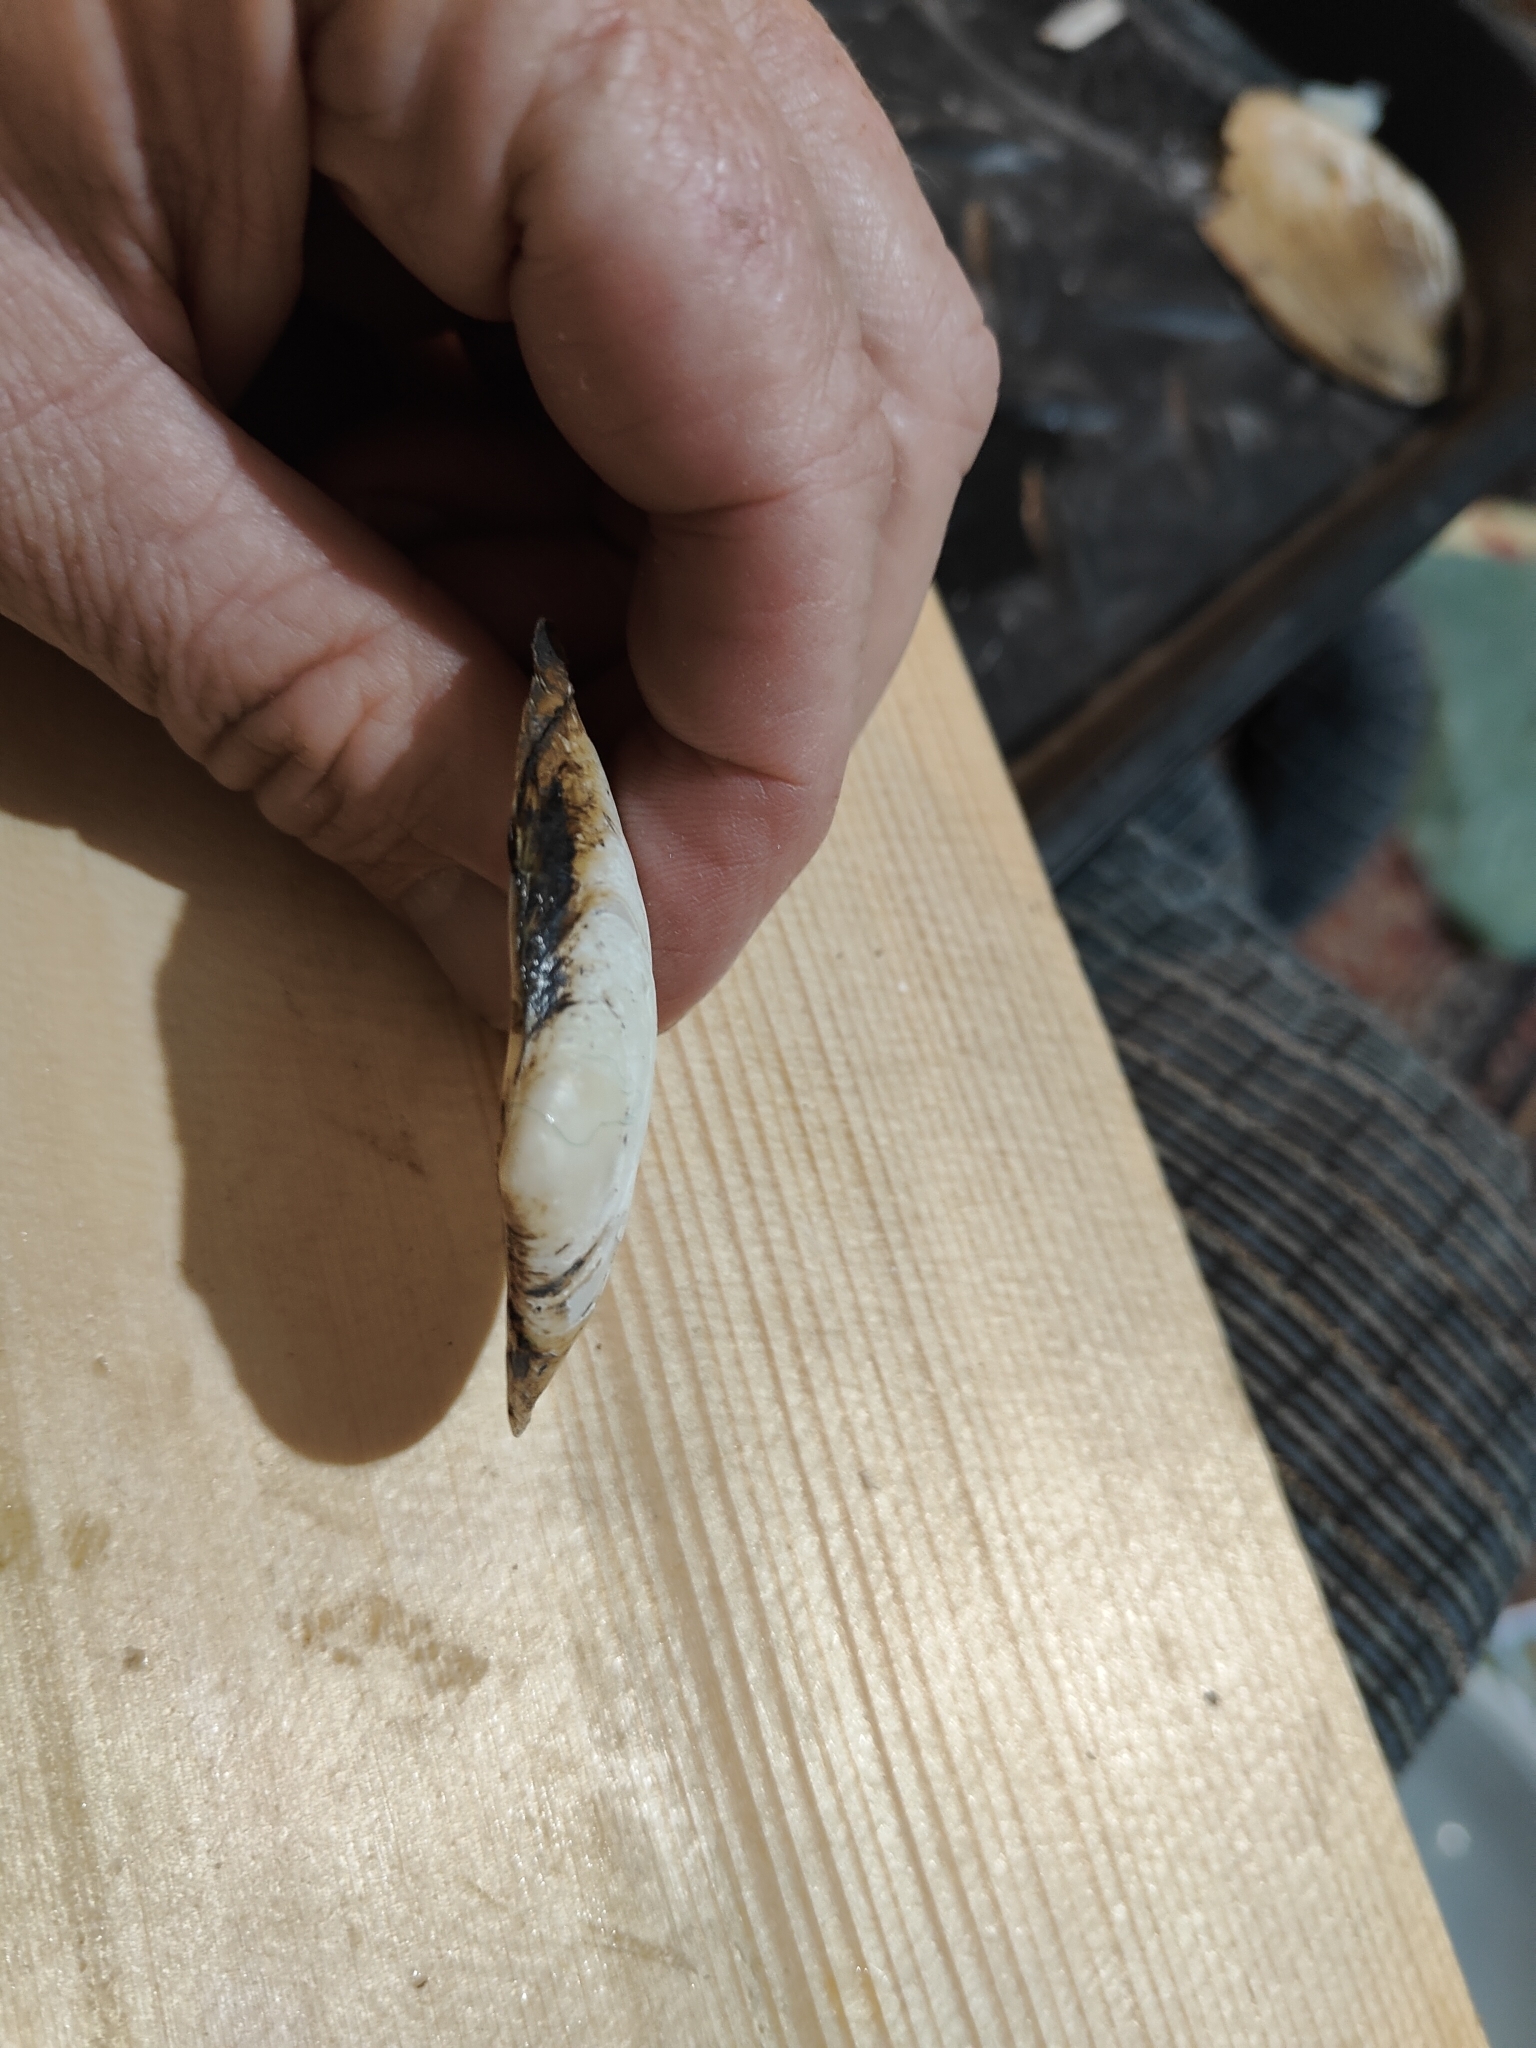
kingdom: Animalia
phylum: Mollusca
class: Bivalvia
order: Unionida
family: Unionidae
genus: Potamilus
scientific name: Potamilus fragilis
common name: Fragile papershell
